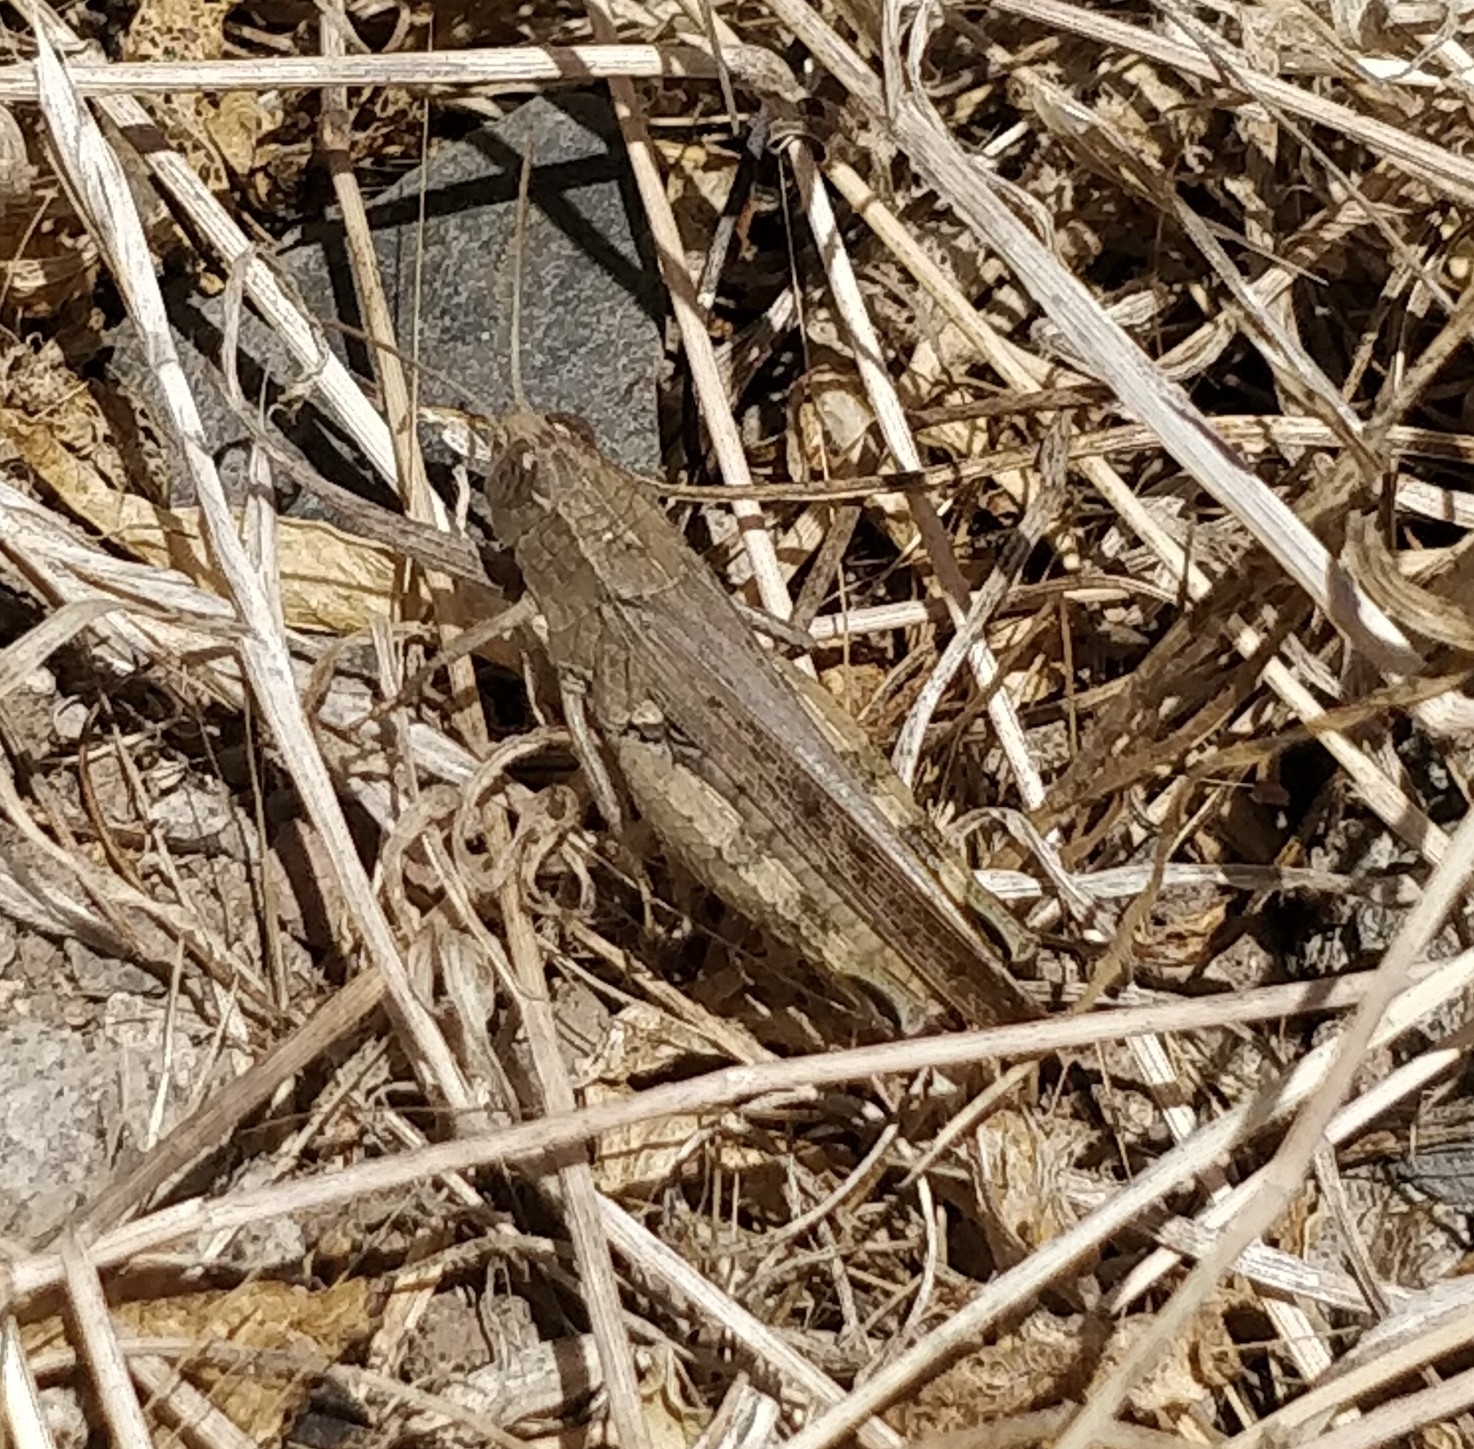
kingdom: Animalia
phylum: Arthropoda
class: Insecta
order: Orthoptera
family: Acrididae
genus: Calliptamus
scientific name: Calliptamus plebeius
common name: Canarian pincer grasshopper
